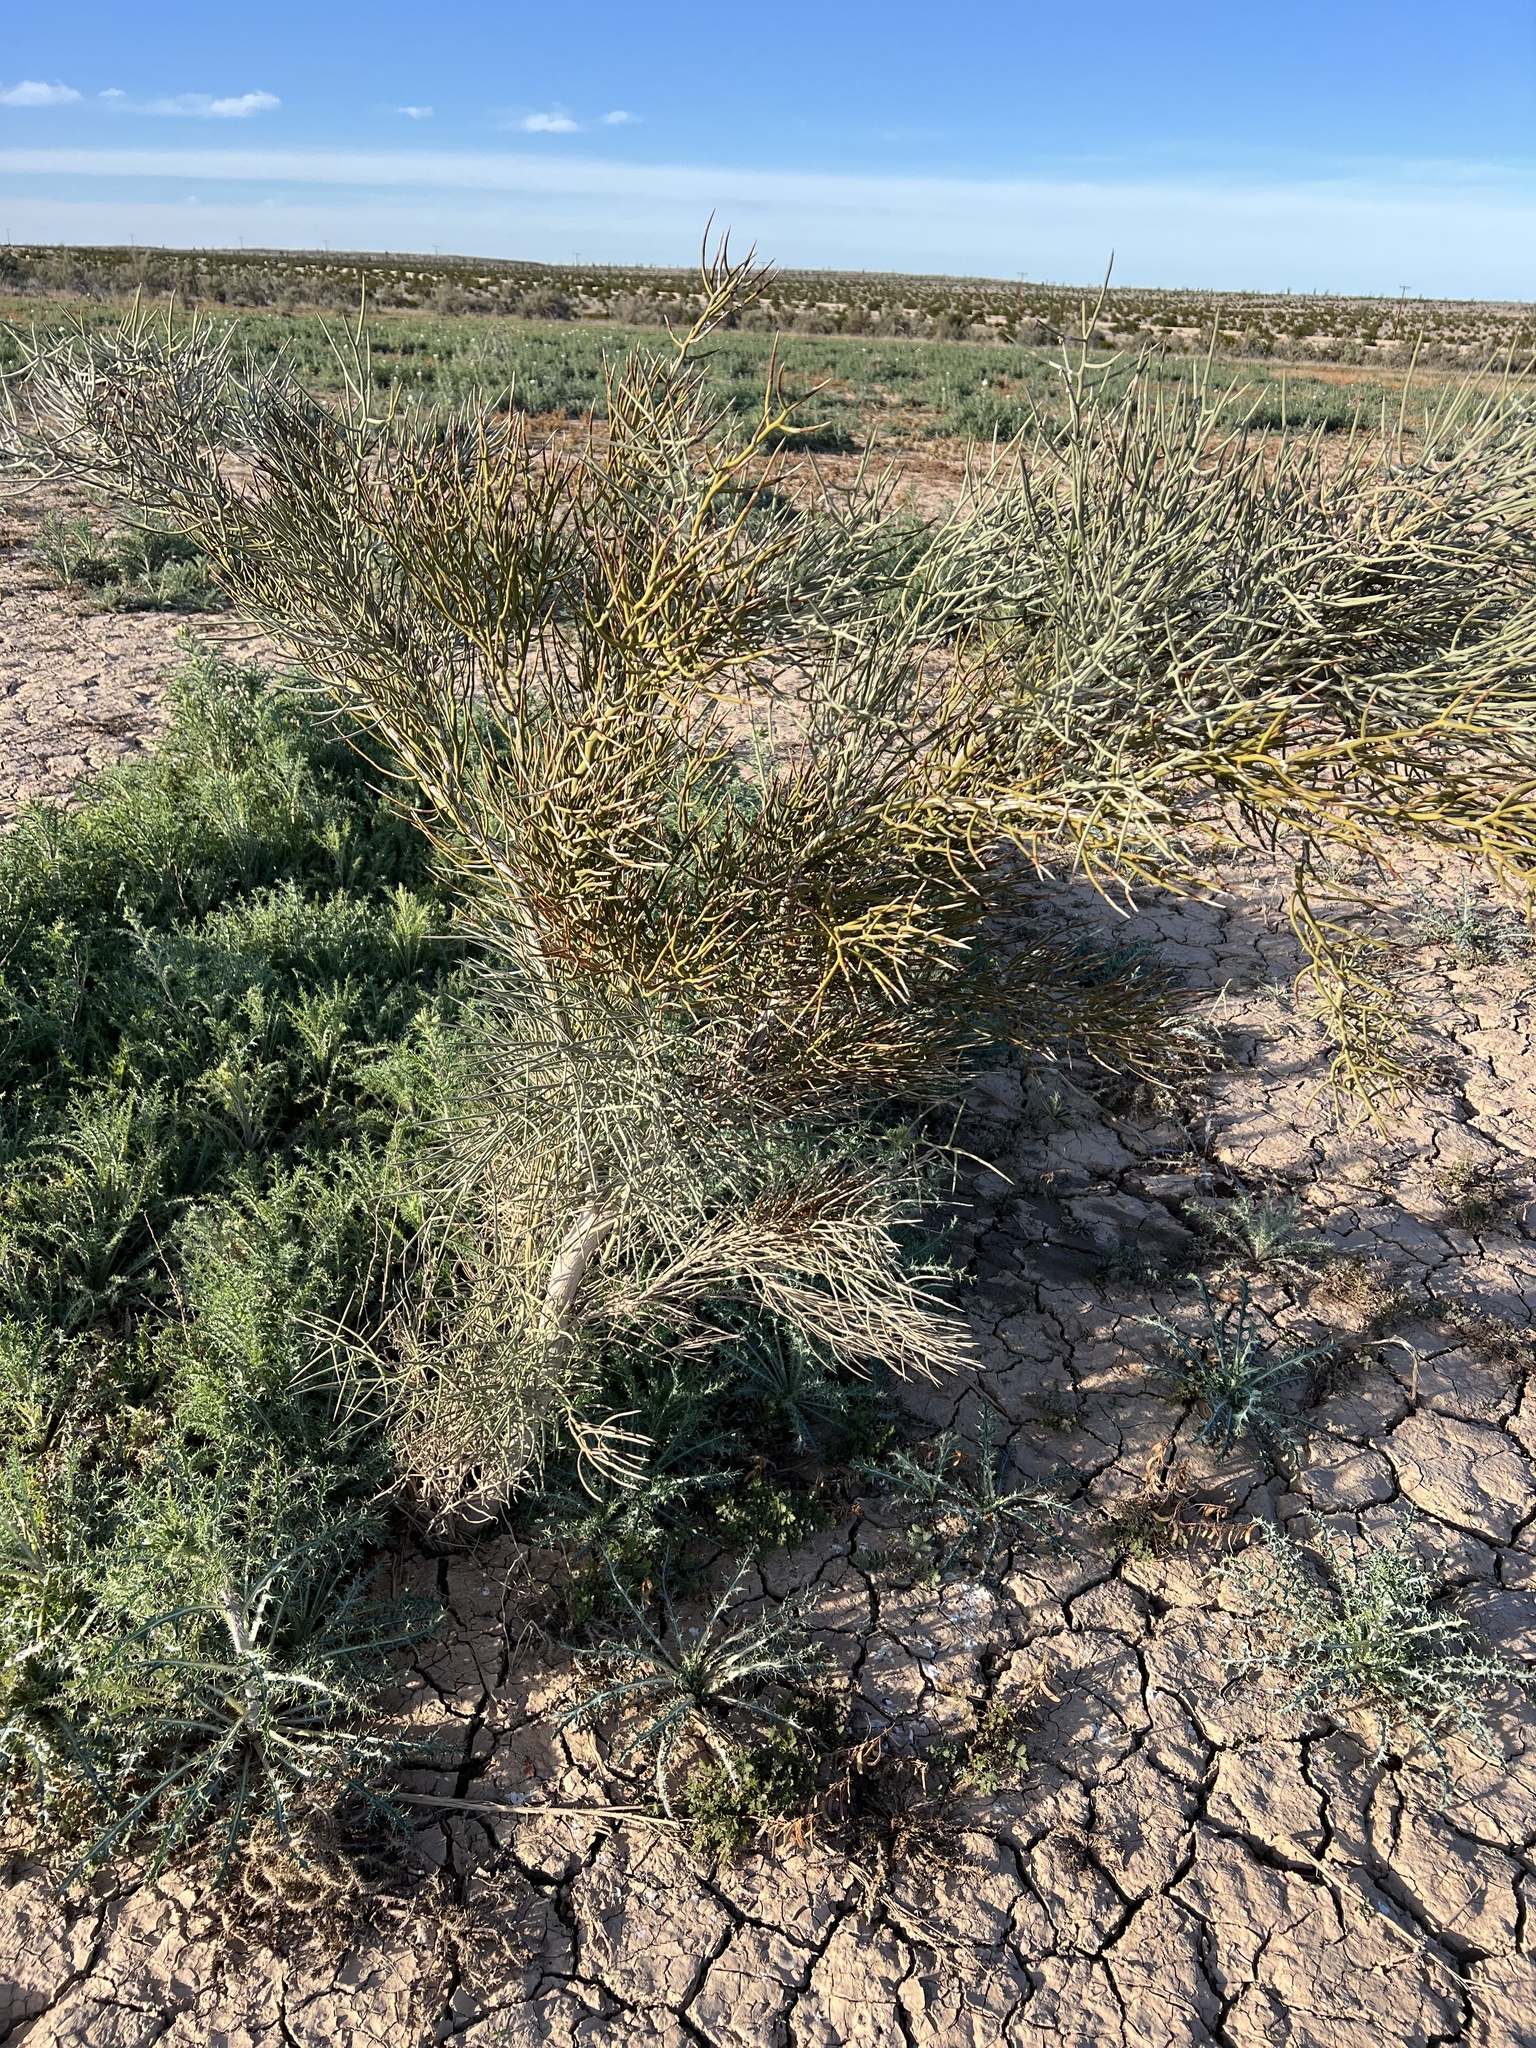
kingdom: Animalia
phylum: Chordata
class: Aves
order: Passeriformes
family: Mimidae
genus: Oreoscoptes
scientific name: Oreoscoptes montanus
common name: Sage thrasher
